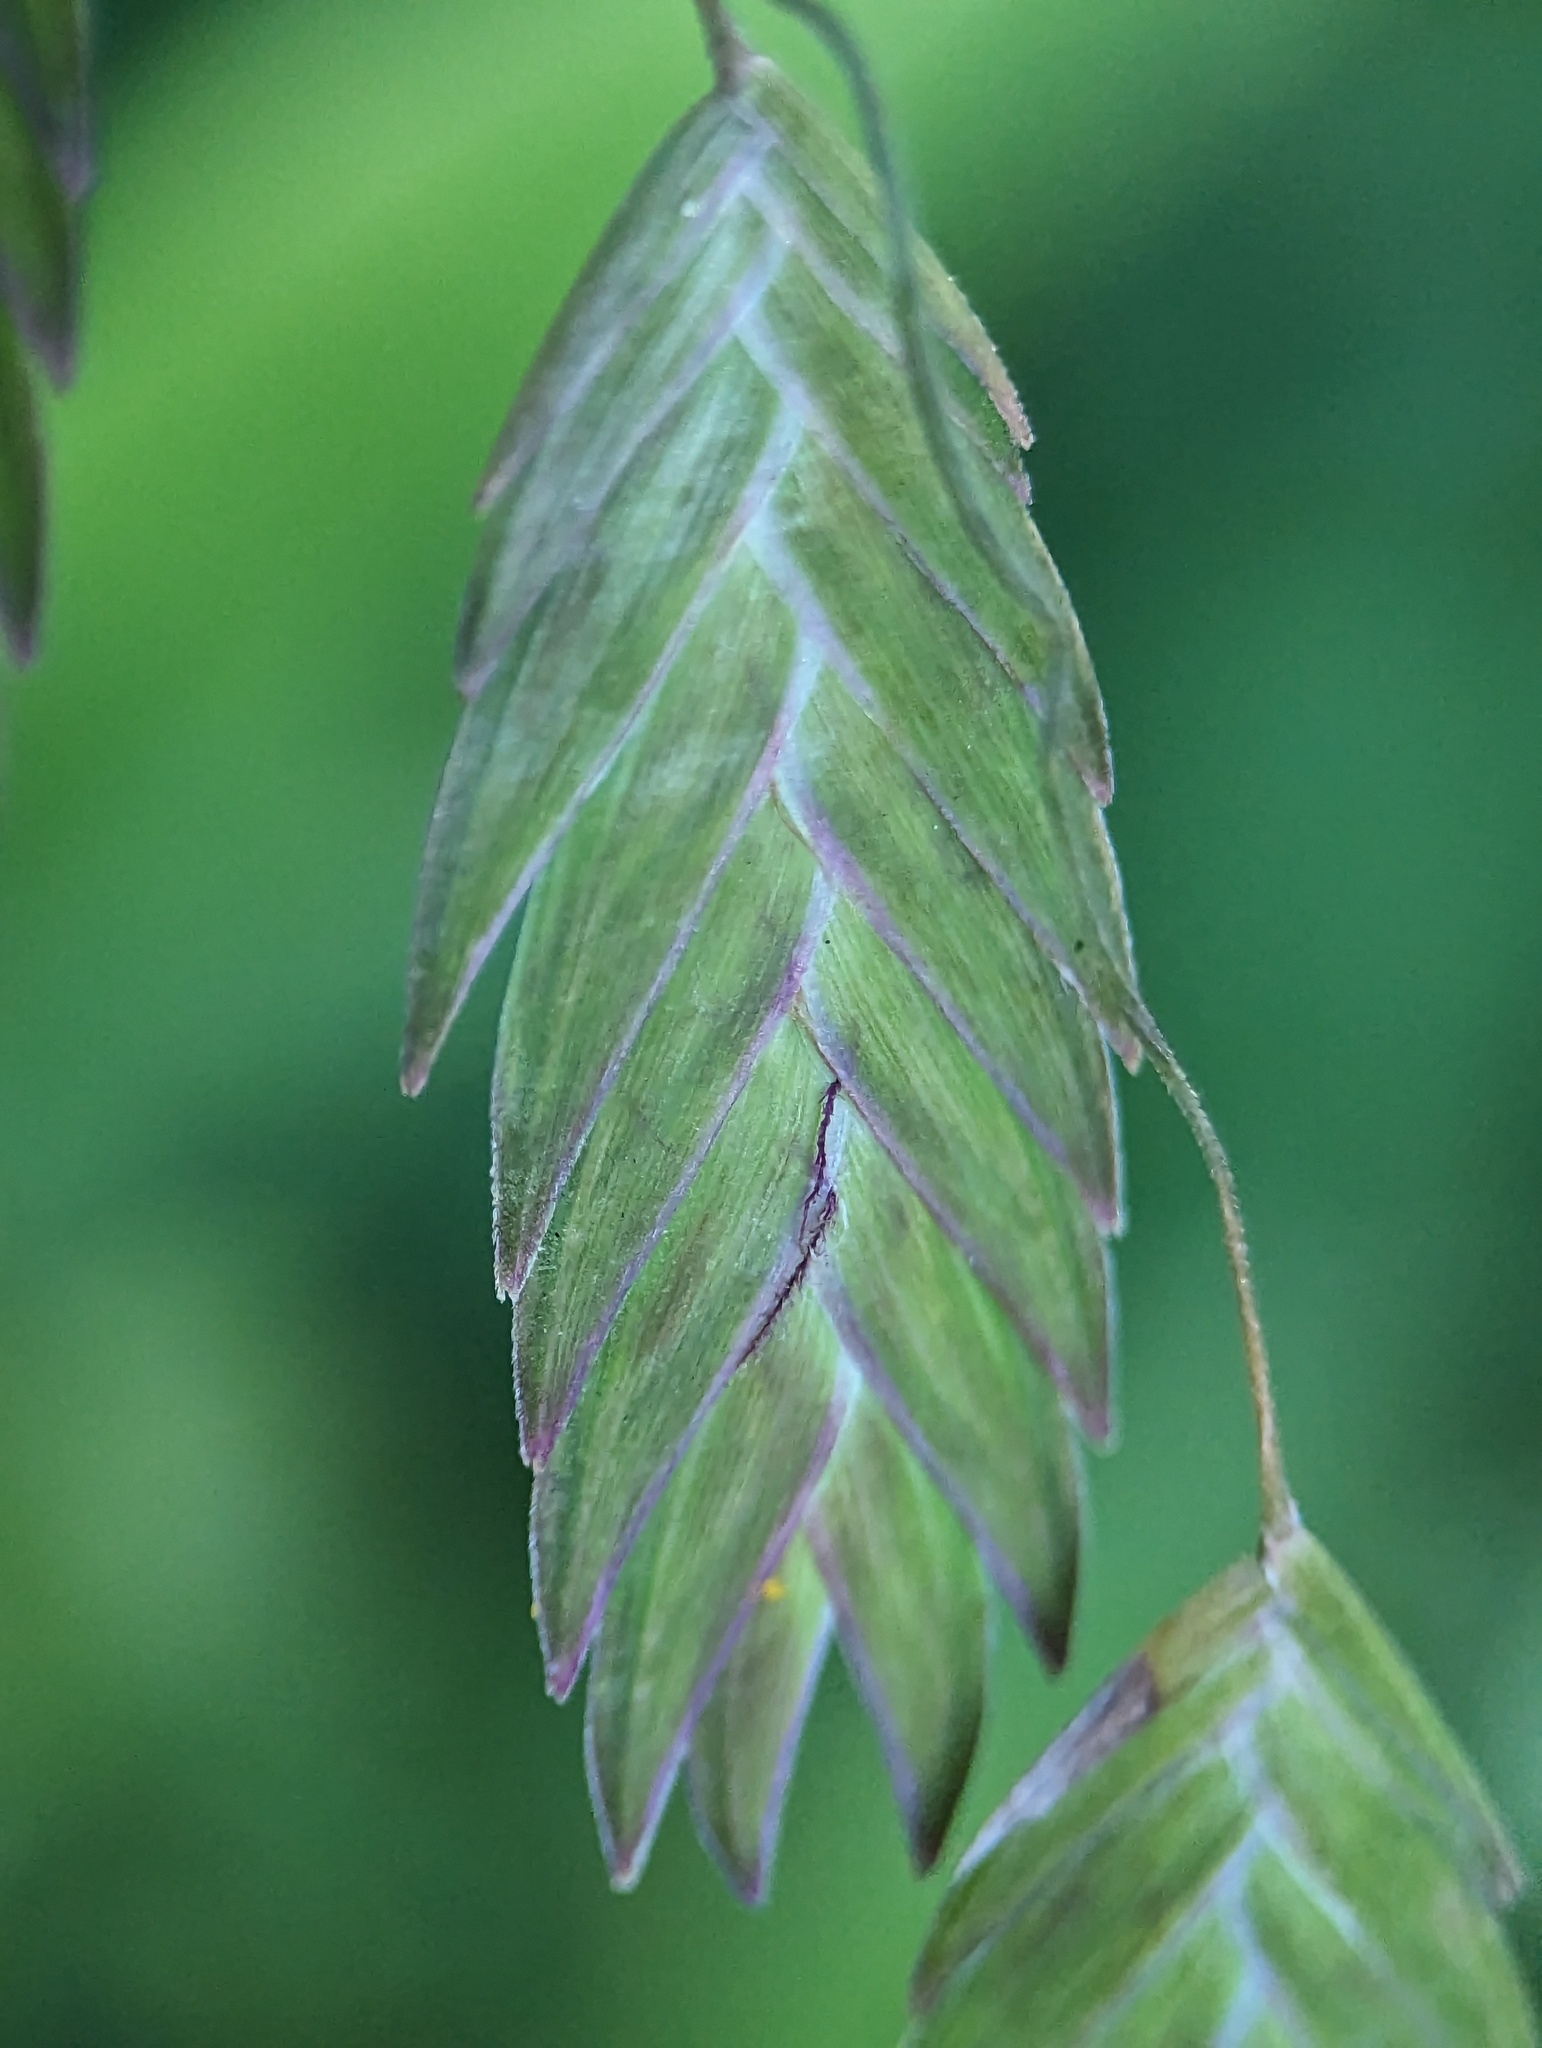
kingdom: Plantae
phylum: Tracheophyta
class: Liliopsida
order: Poales
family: Poaceae
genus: Chasmanthium
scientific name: Chasmanthium latifolium
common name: Broad-leaved chasmanthium
